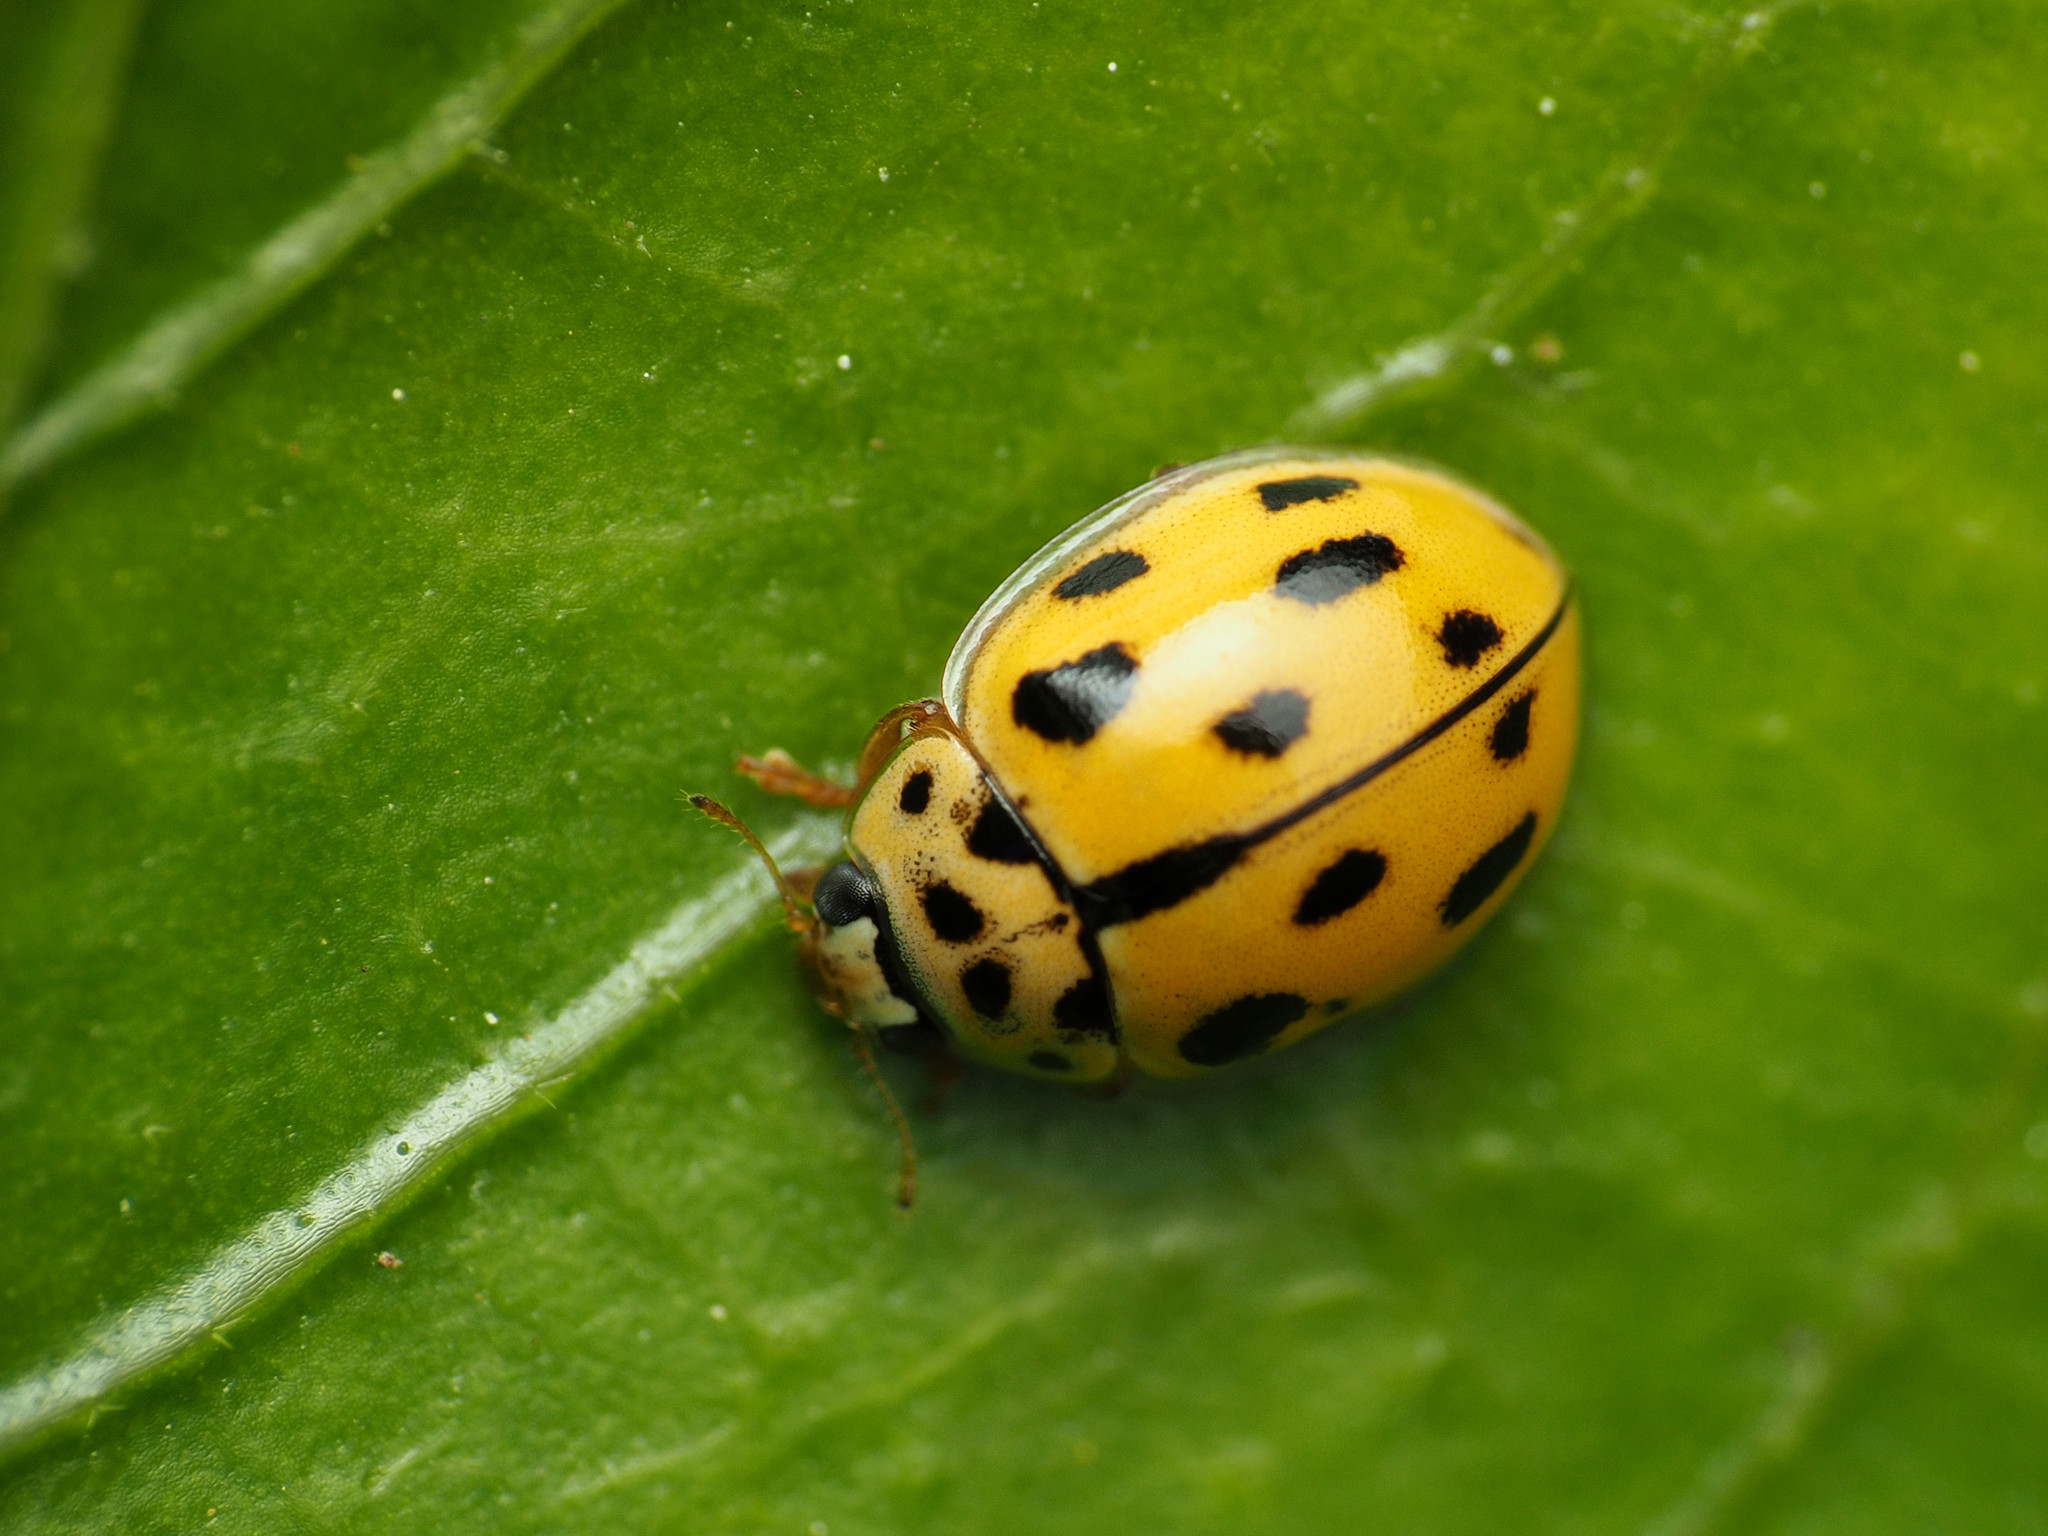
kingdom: Animalia
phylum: Arthropoda
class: Insecta
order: Coleoptera
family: Coccinellidae
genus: Propylaea
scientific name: Propylaea quatuordecimpunctata
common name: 14-spotted ladybird beetle
